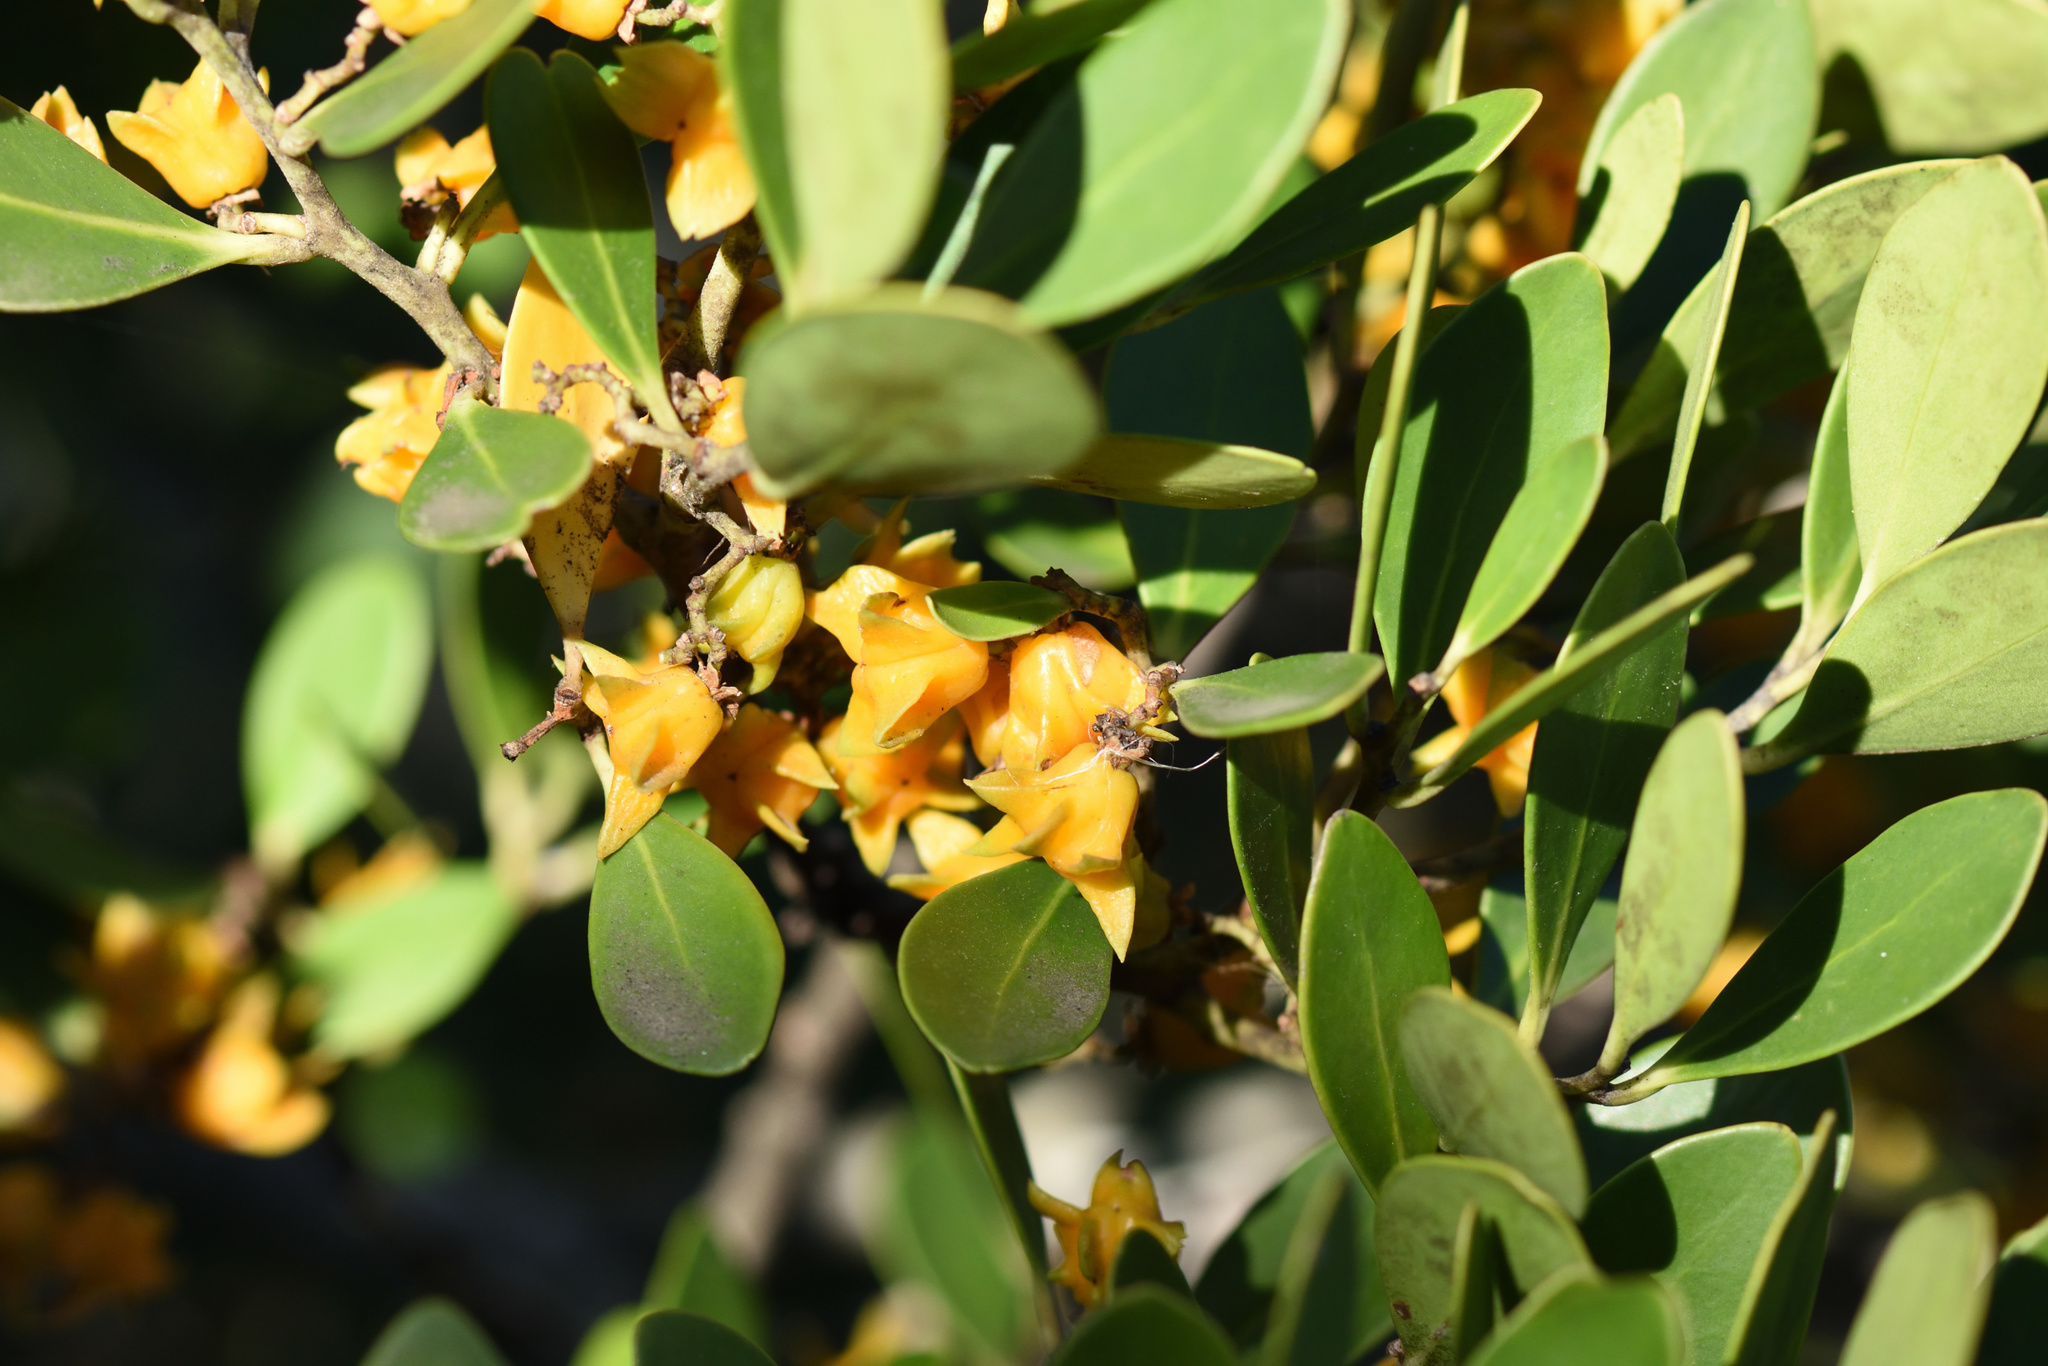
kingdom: Plantae
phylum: Tracheophyta
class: Magnoliopsida
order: Celastrales
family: Celastraceae
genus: Pterocelastrus
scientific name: Pterocelastrus tricuspidatus
